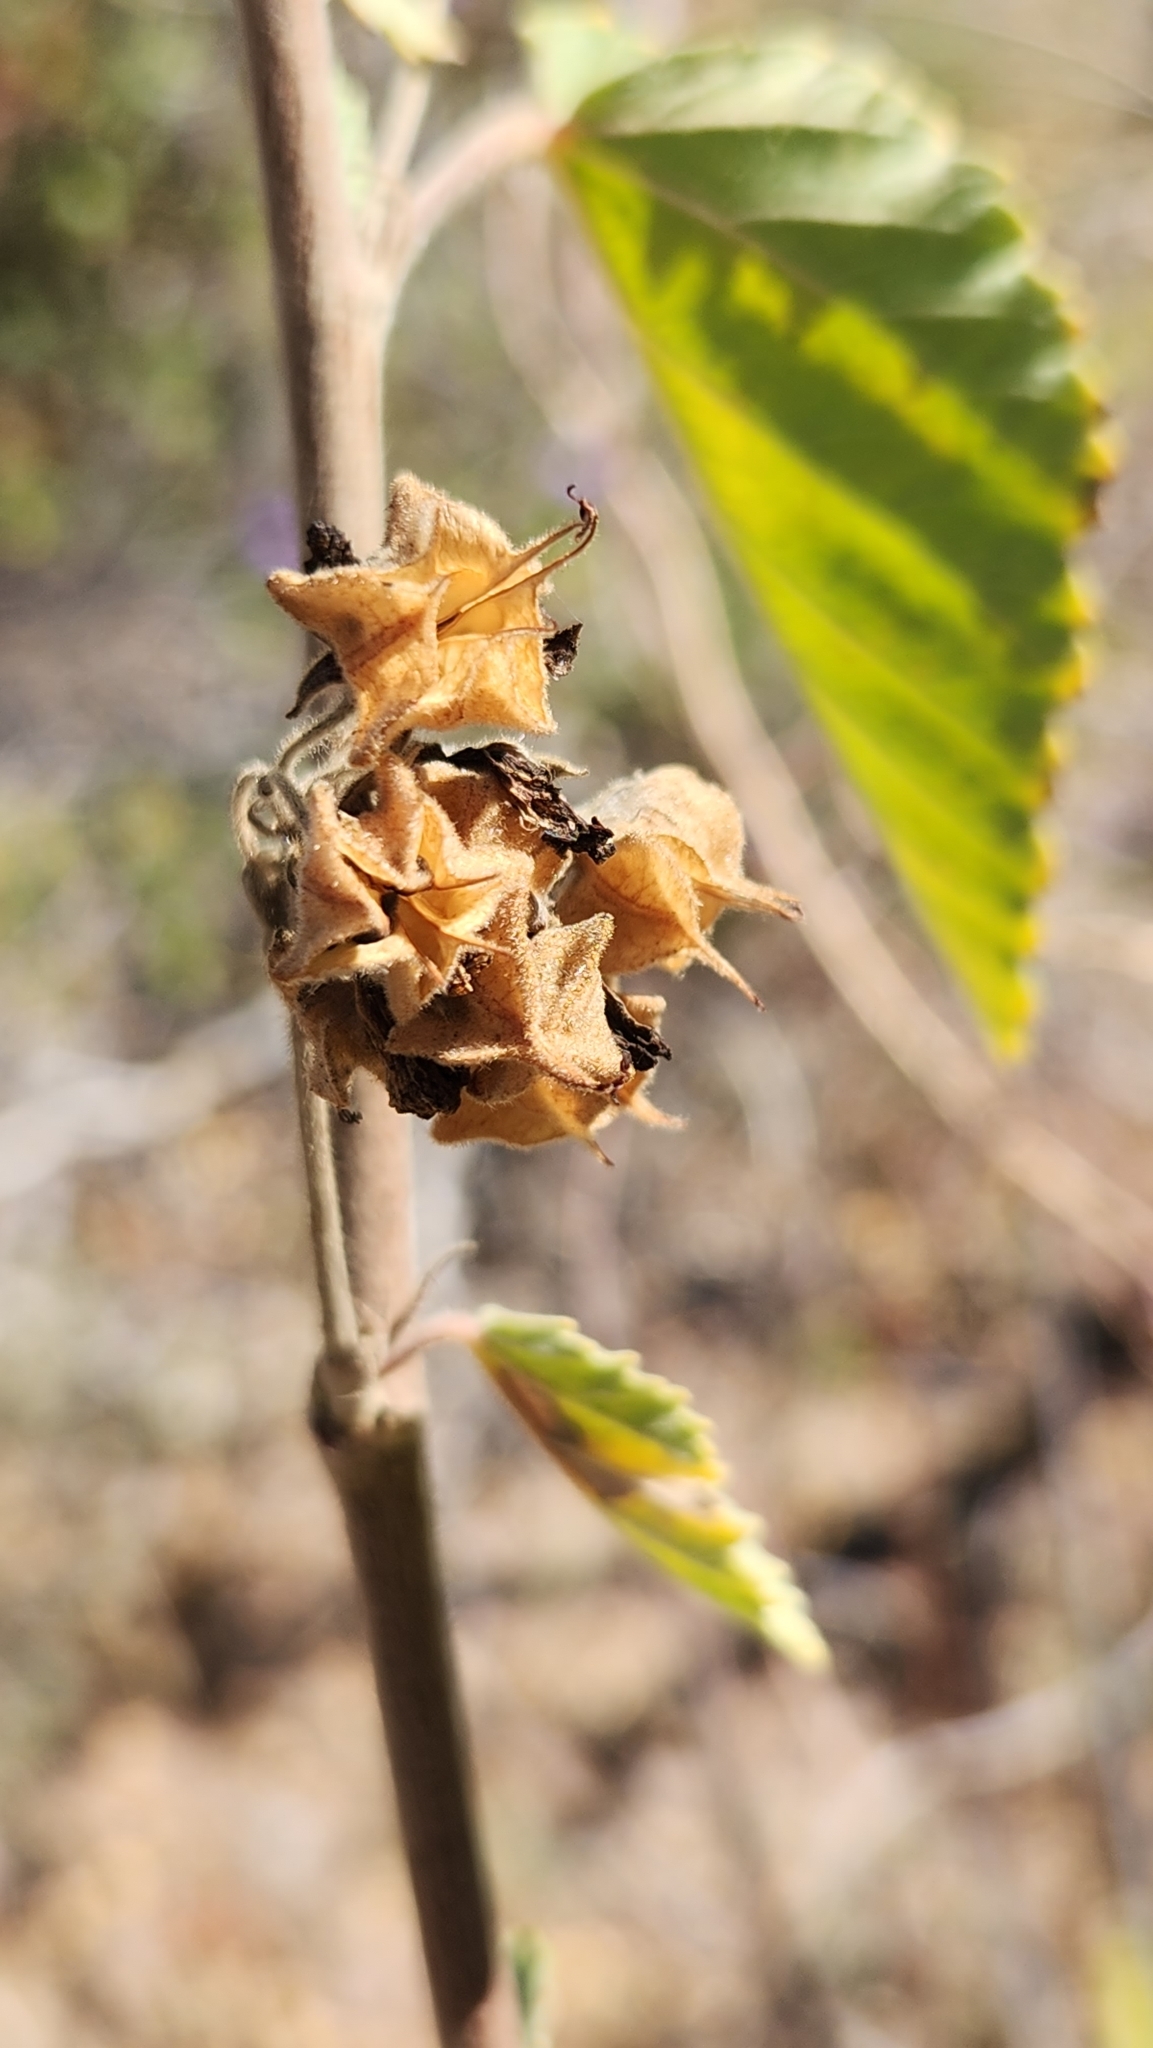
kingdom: Plantae
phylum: Tracheophyta
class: Magnoliopsida
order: Malvales
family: Malvaceae
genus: Melochia
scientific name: Melochia tomentosa
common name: Black torch
